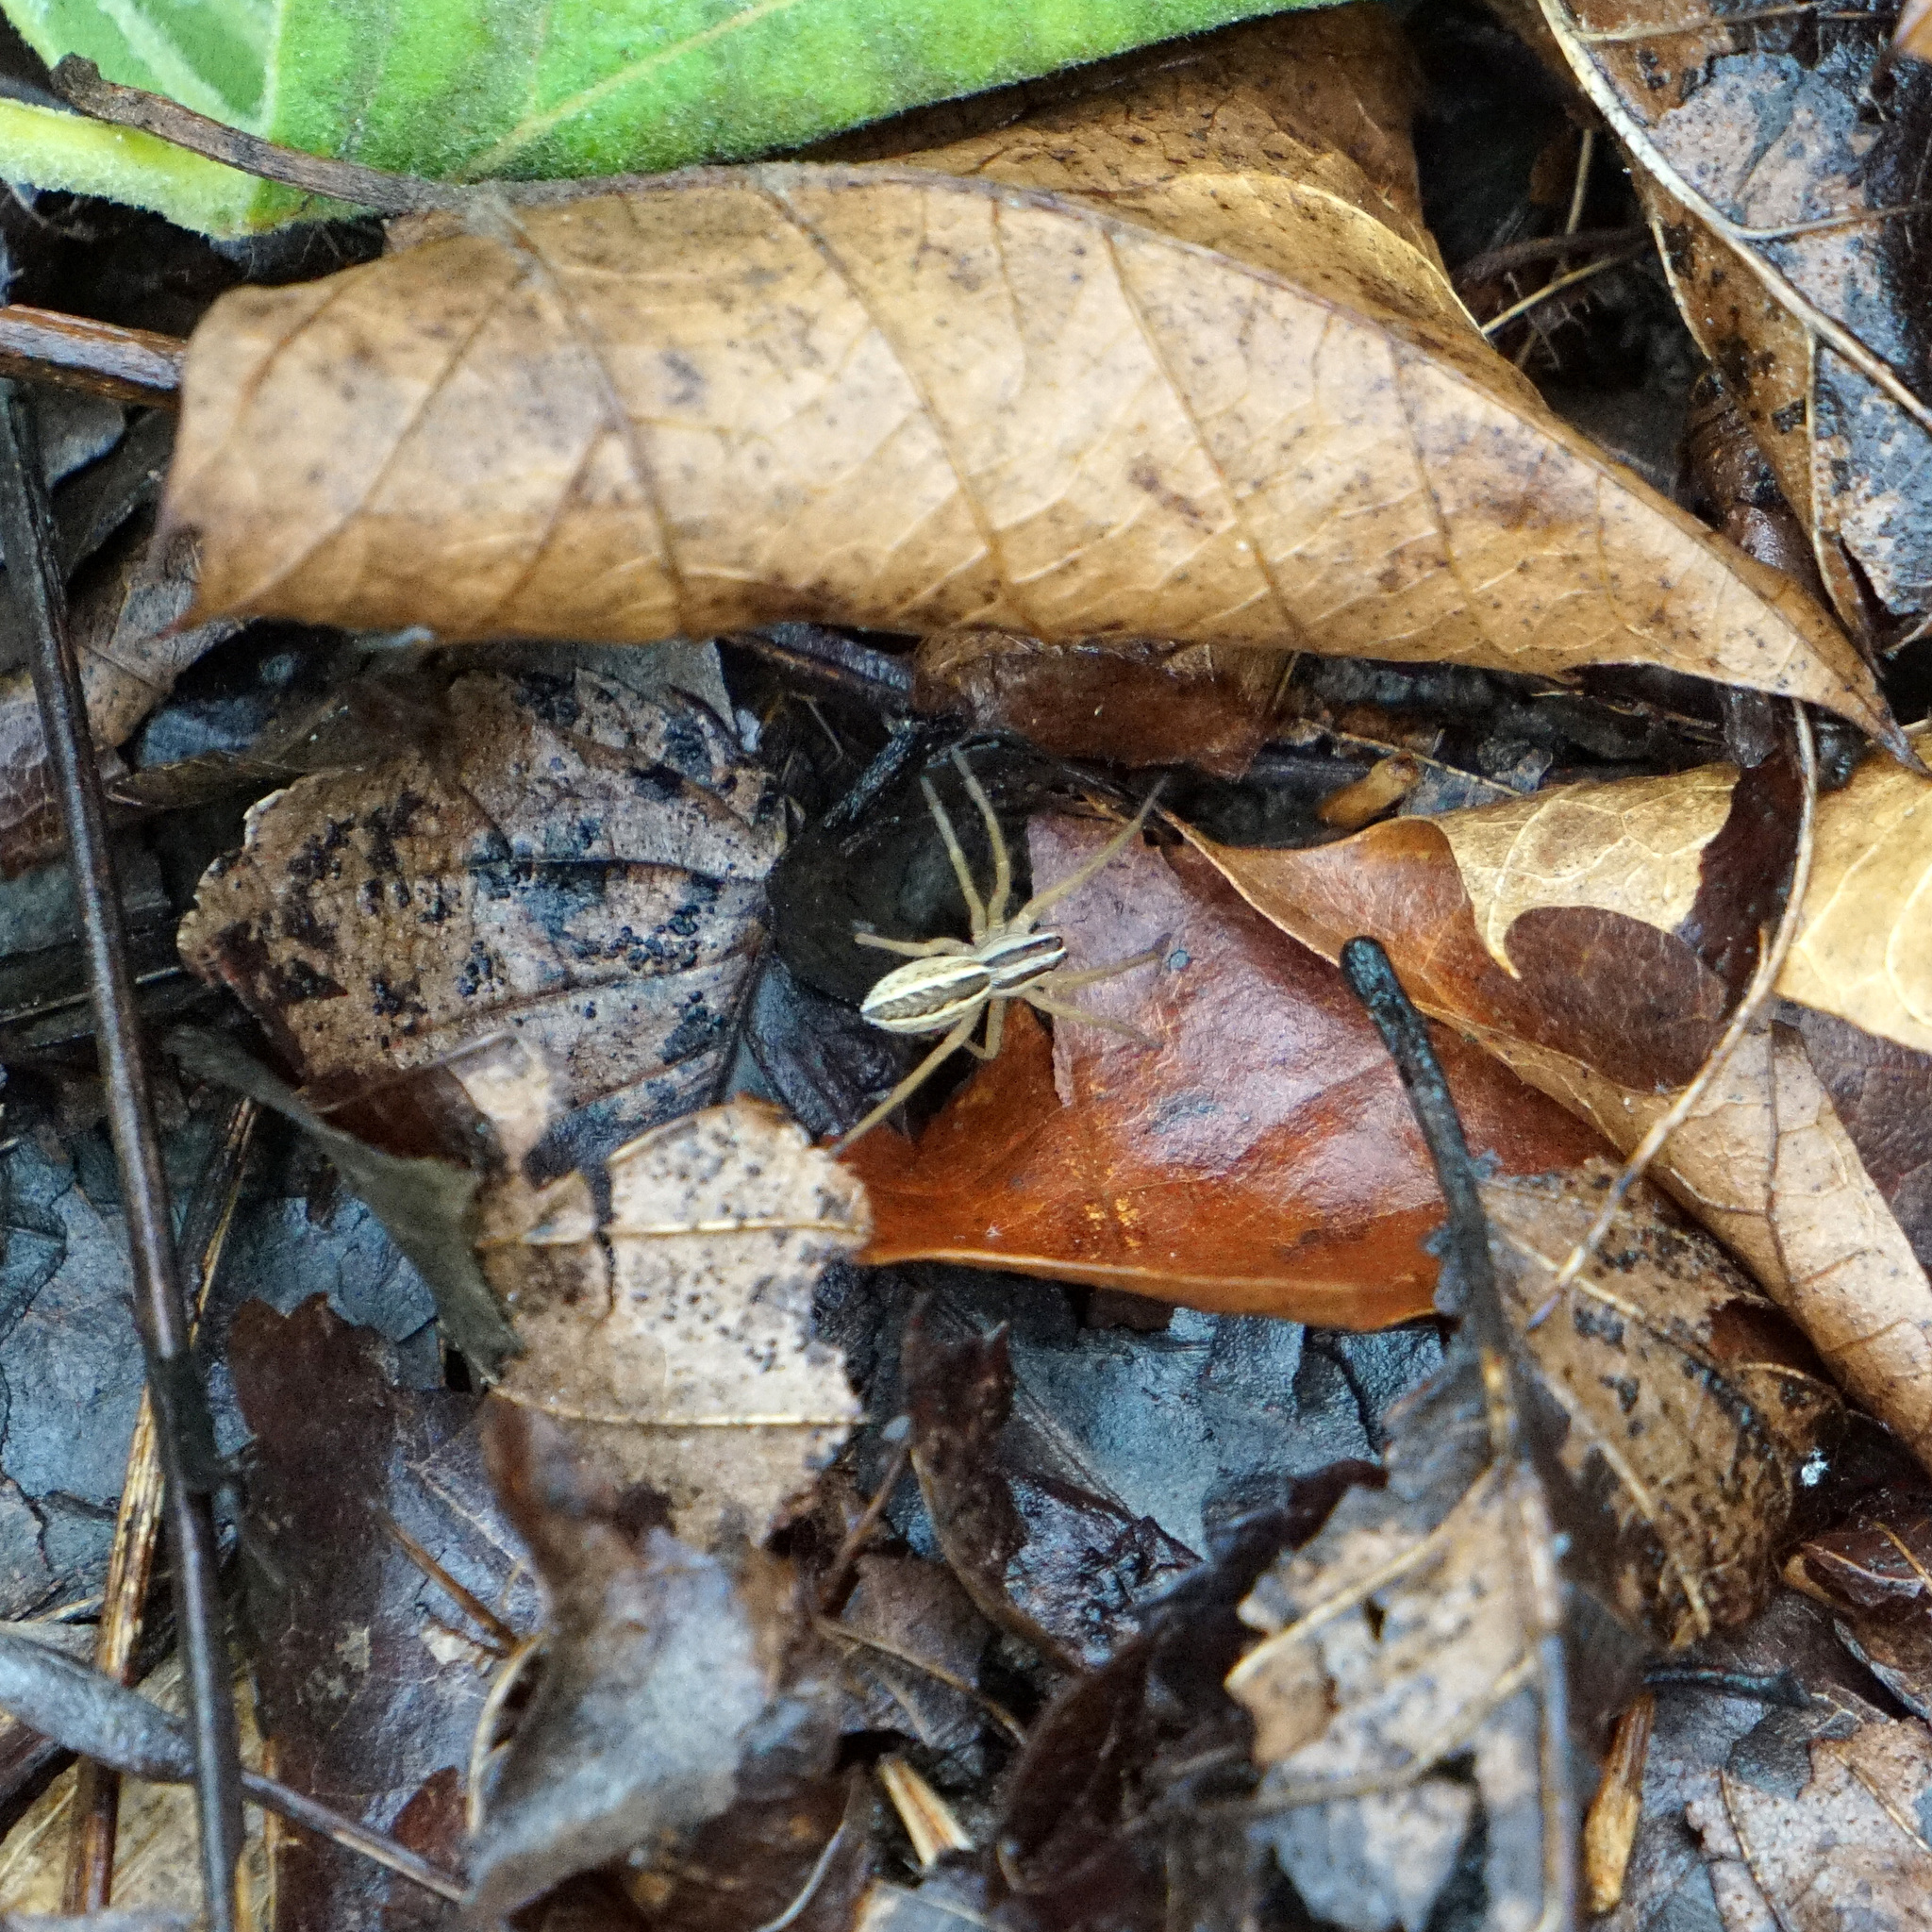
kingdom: Animalia
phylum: Arthropoda
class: Arachnida
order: Araneae
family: Lycosidae
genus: Rabidosa
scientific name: Rabidosa rabida
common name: Rabid wolf spider
